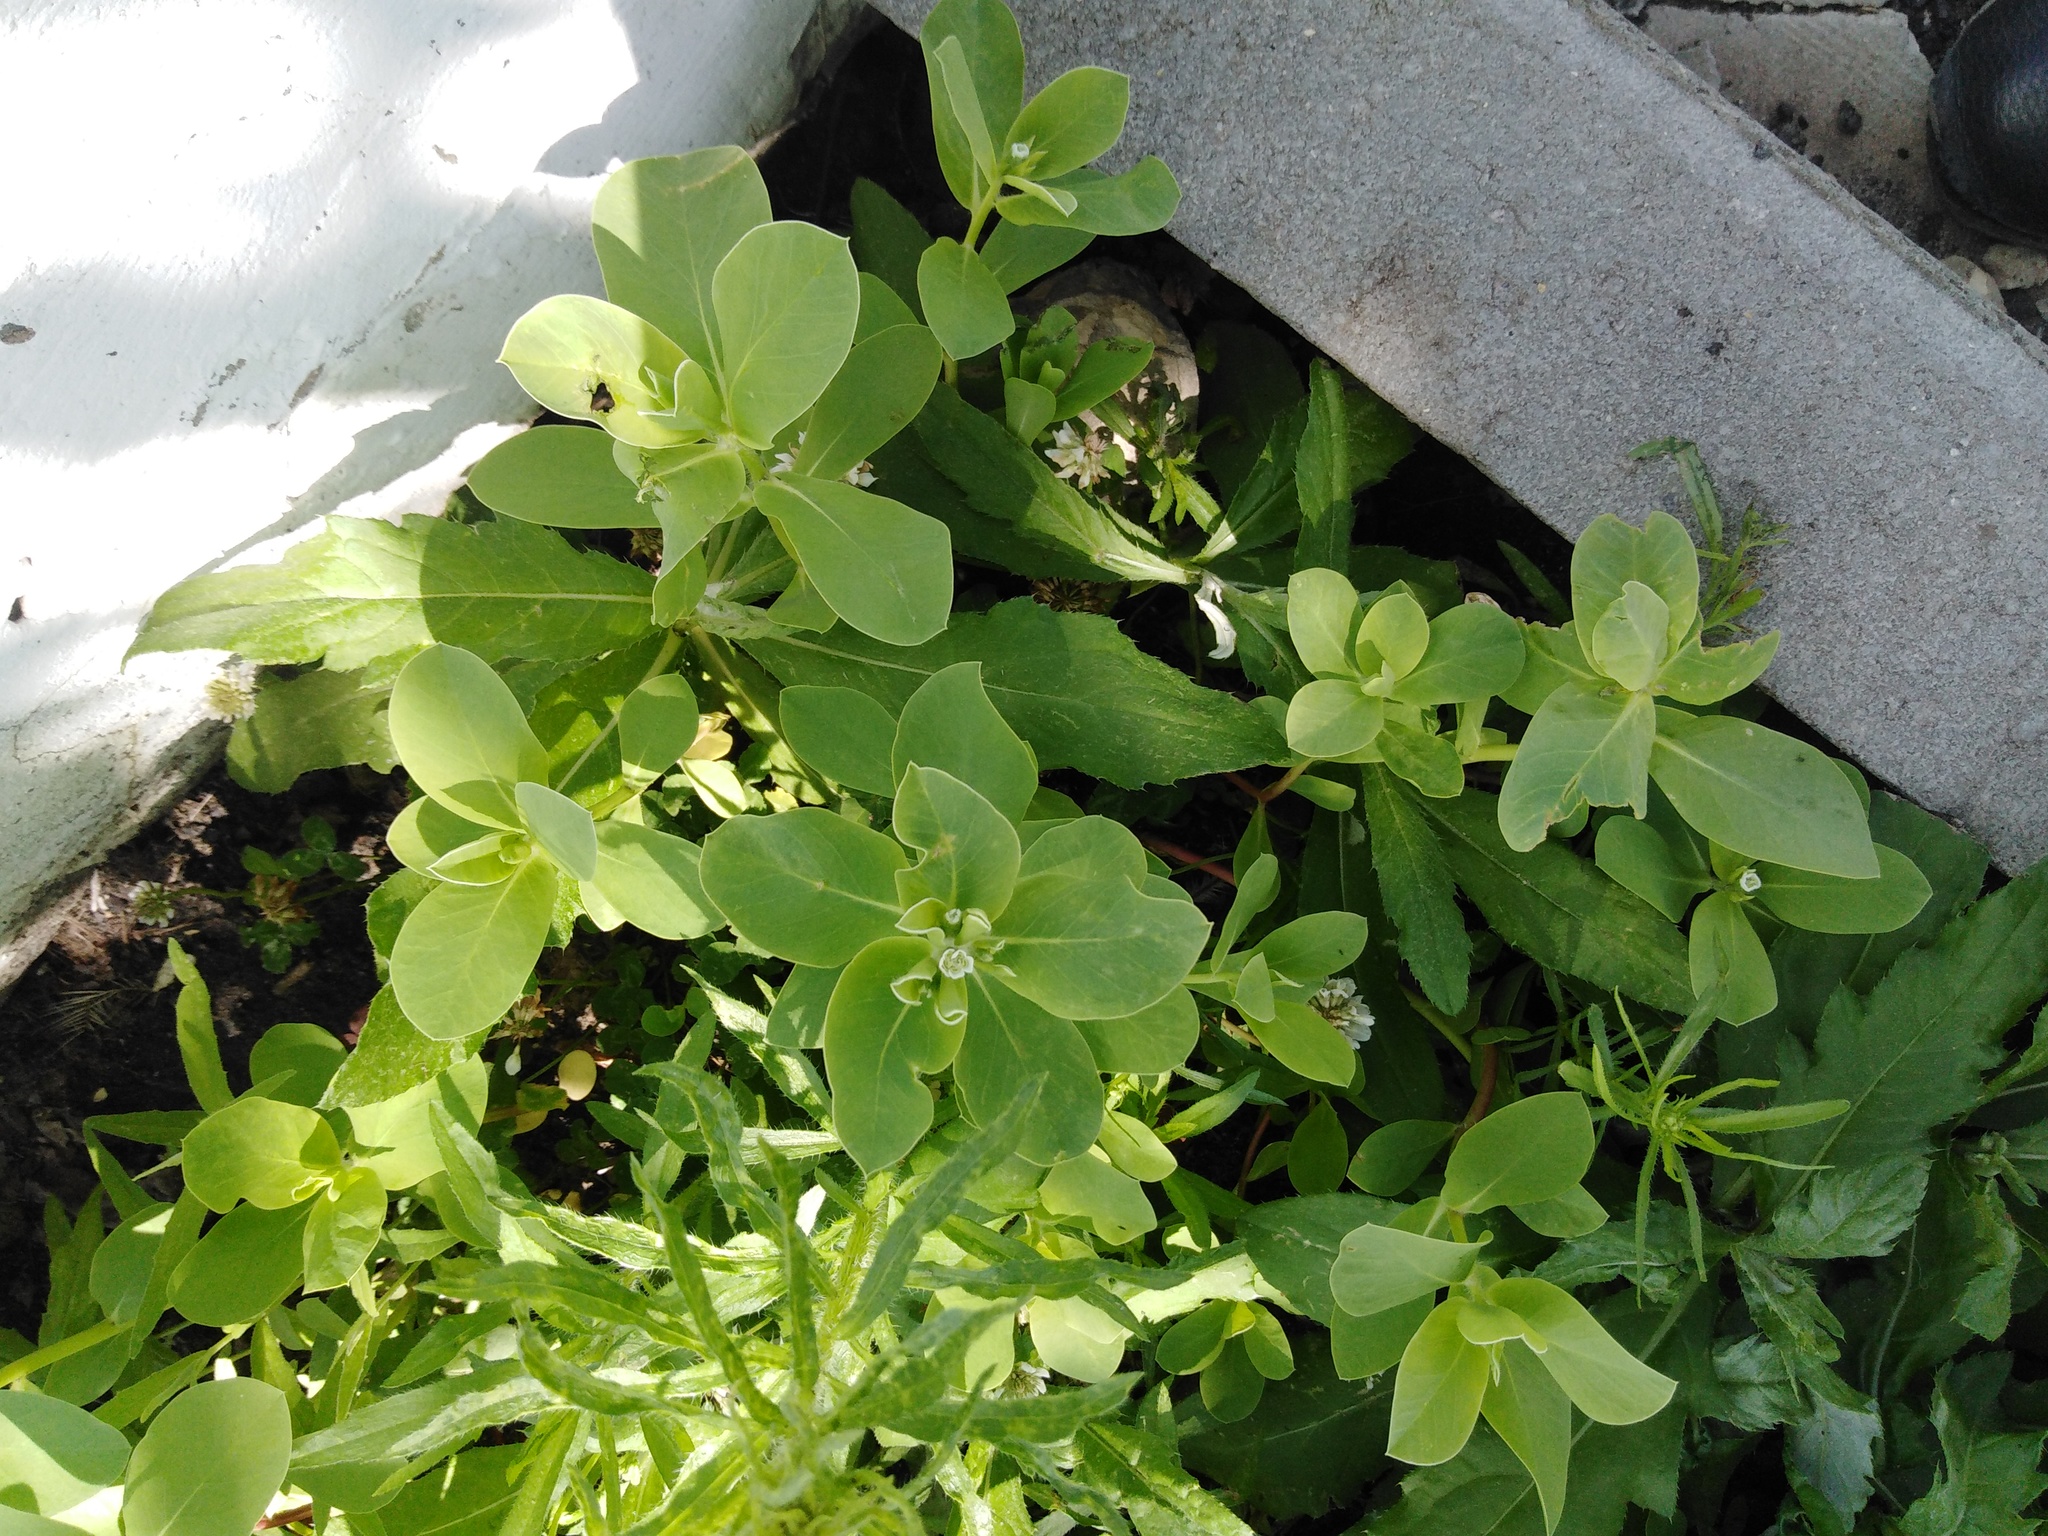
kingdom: Plantae
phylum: Tracheophyta
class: Magnoliopsida
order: Malpighiales
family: Euphorbiaceae
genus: Euphorbia
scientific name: Euphorbia marginata
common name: Ghostweed
